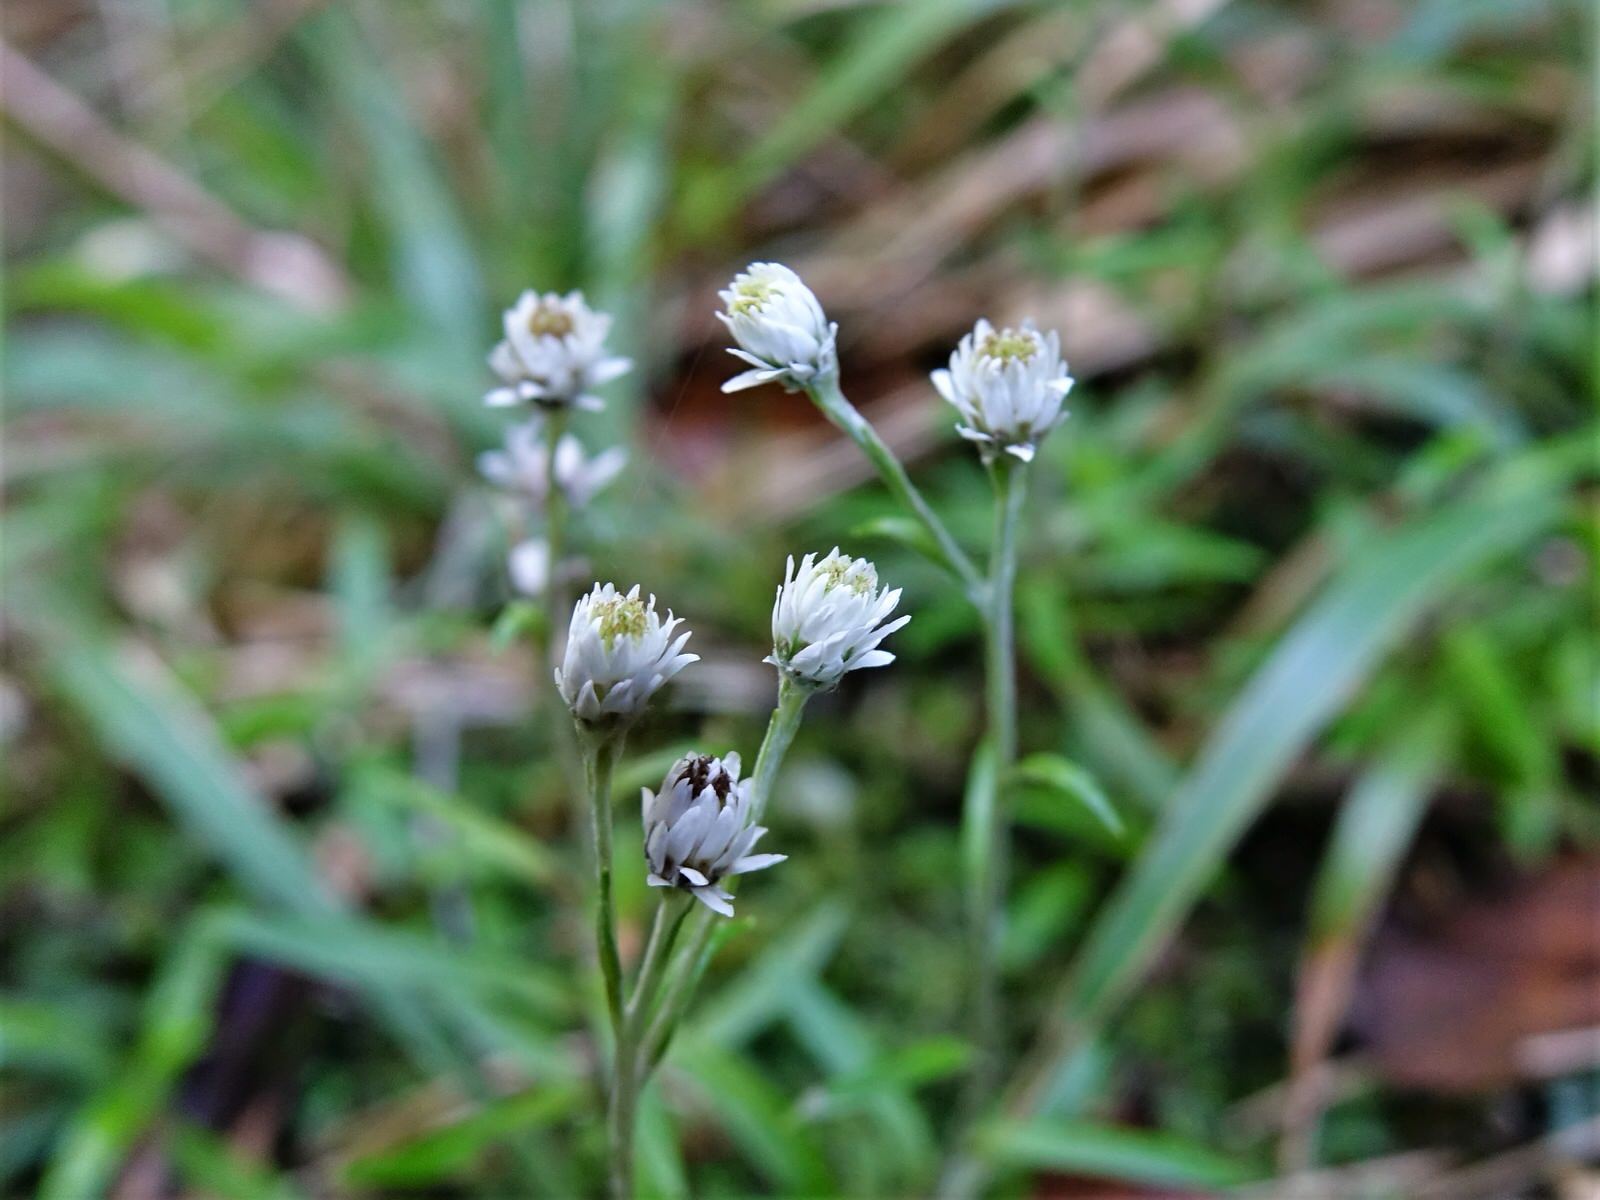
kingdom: Plantae
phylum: Tracheophyta
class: Magnoliopsida
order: Asterales
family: Asteraceae
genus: Anaphalioides
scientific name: Anaphalioides trinervis
